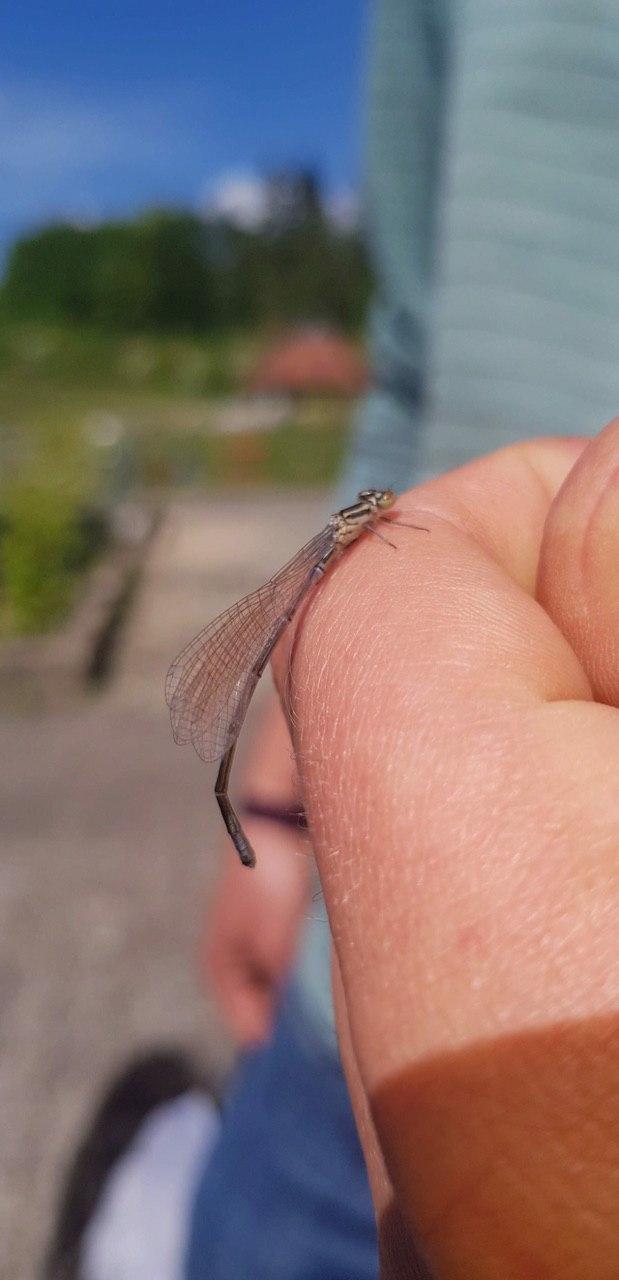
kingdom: Animalia
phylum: Arthropoda
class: Insecta
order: Odonata
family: Coenagrionidae
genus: Coenagrion
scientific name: Coenagrion puella
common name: Azure damselfly
